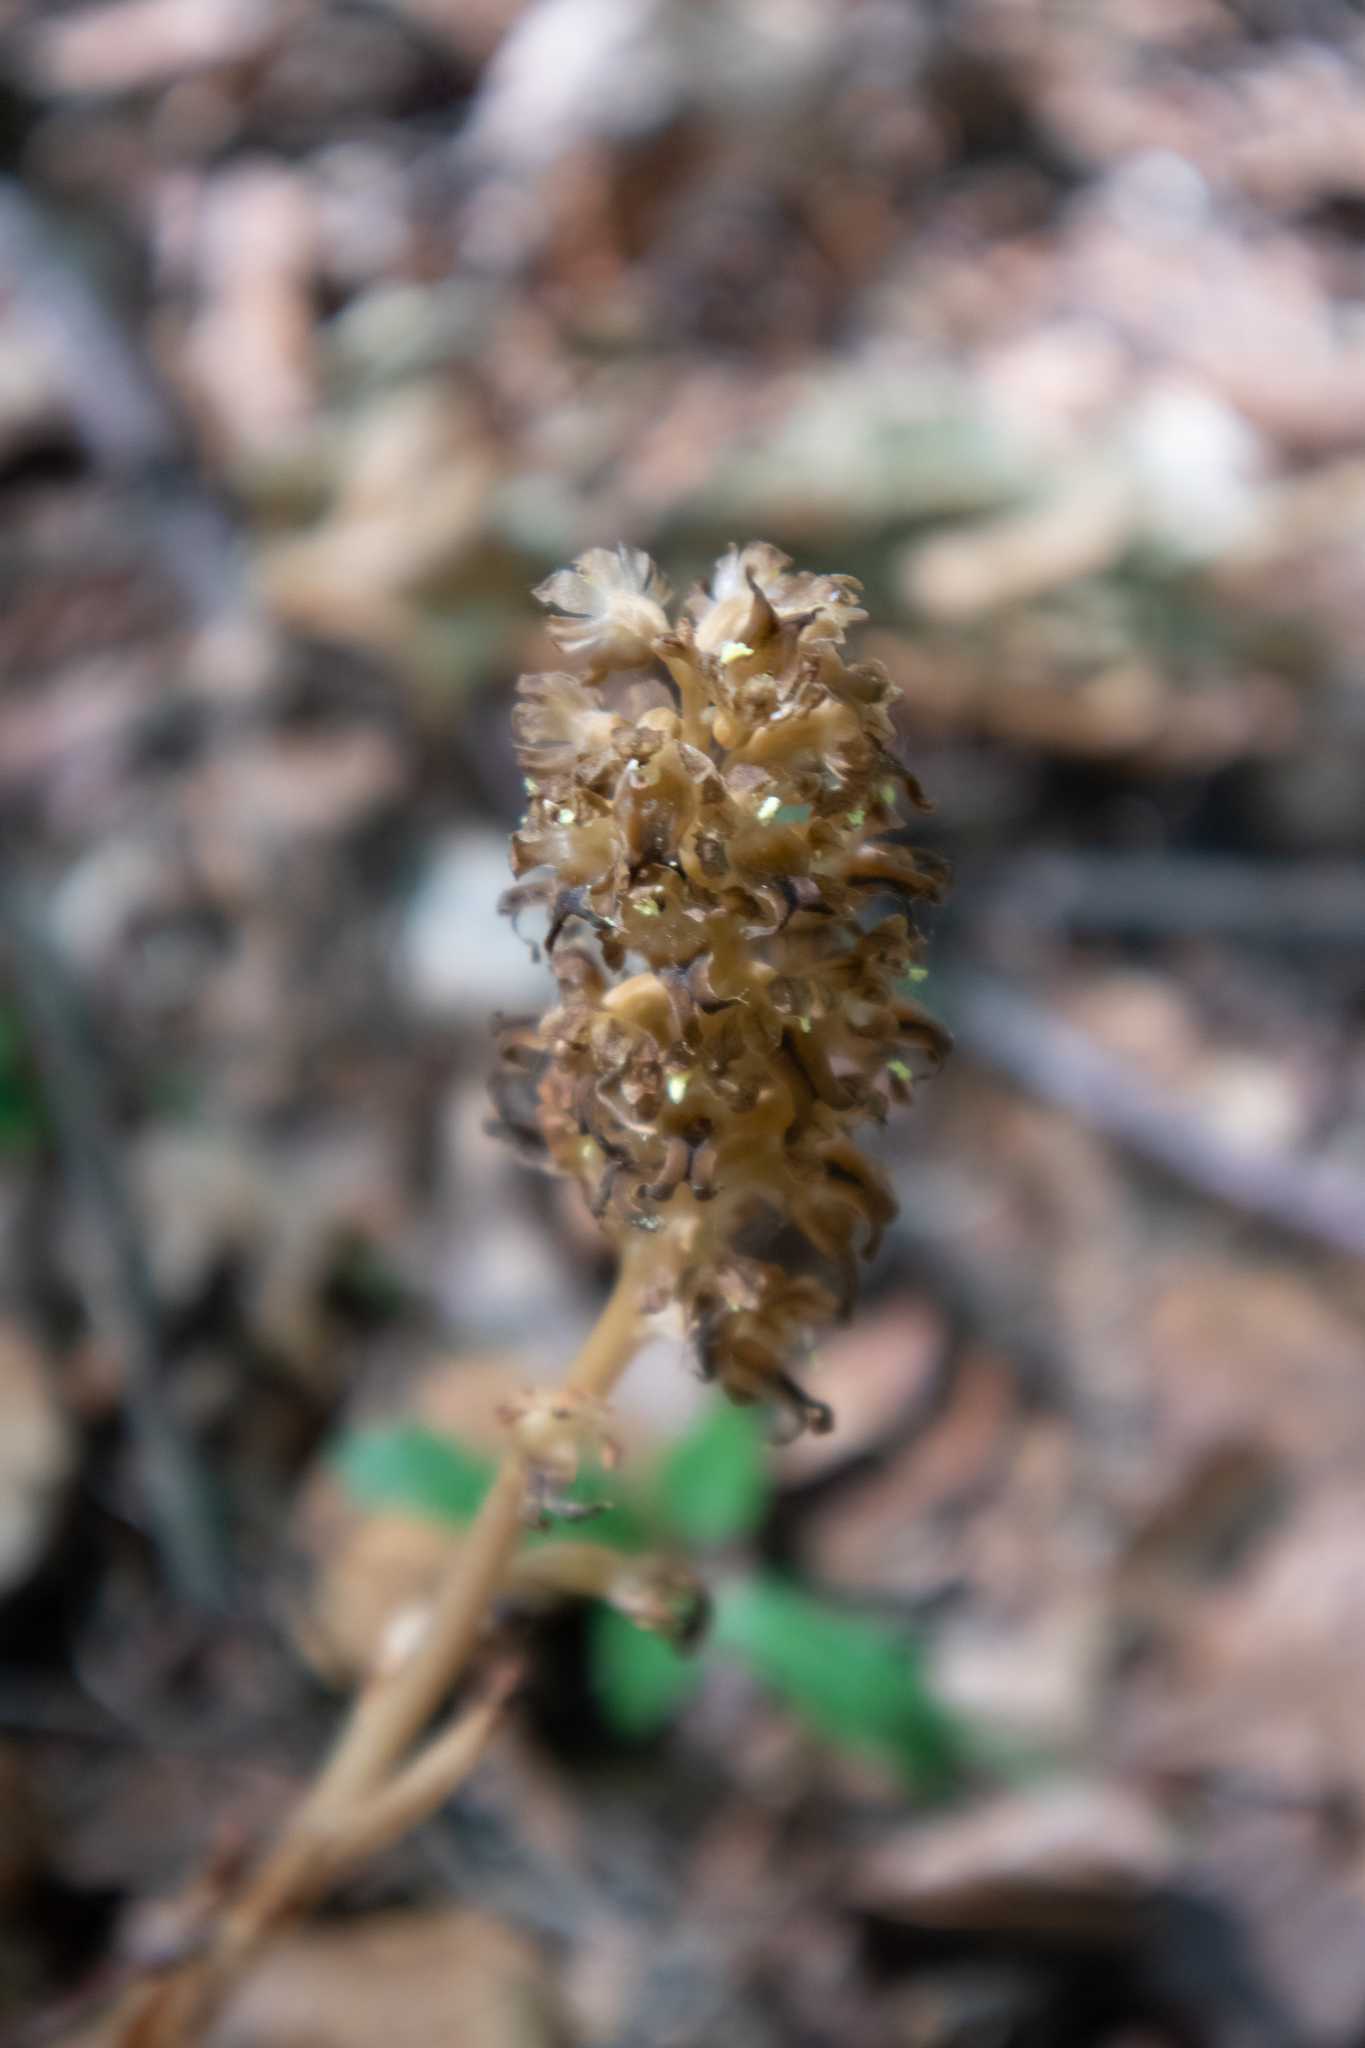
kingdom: Plantae
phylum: Tracheophyta
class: Liliopsida
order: Asparagales
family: Orchidaceae
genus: Neottia
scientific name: Neottia nidus-avis
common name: Bird's-nest orchid
